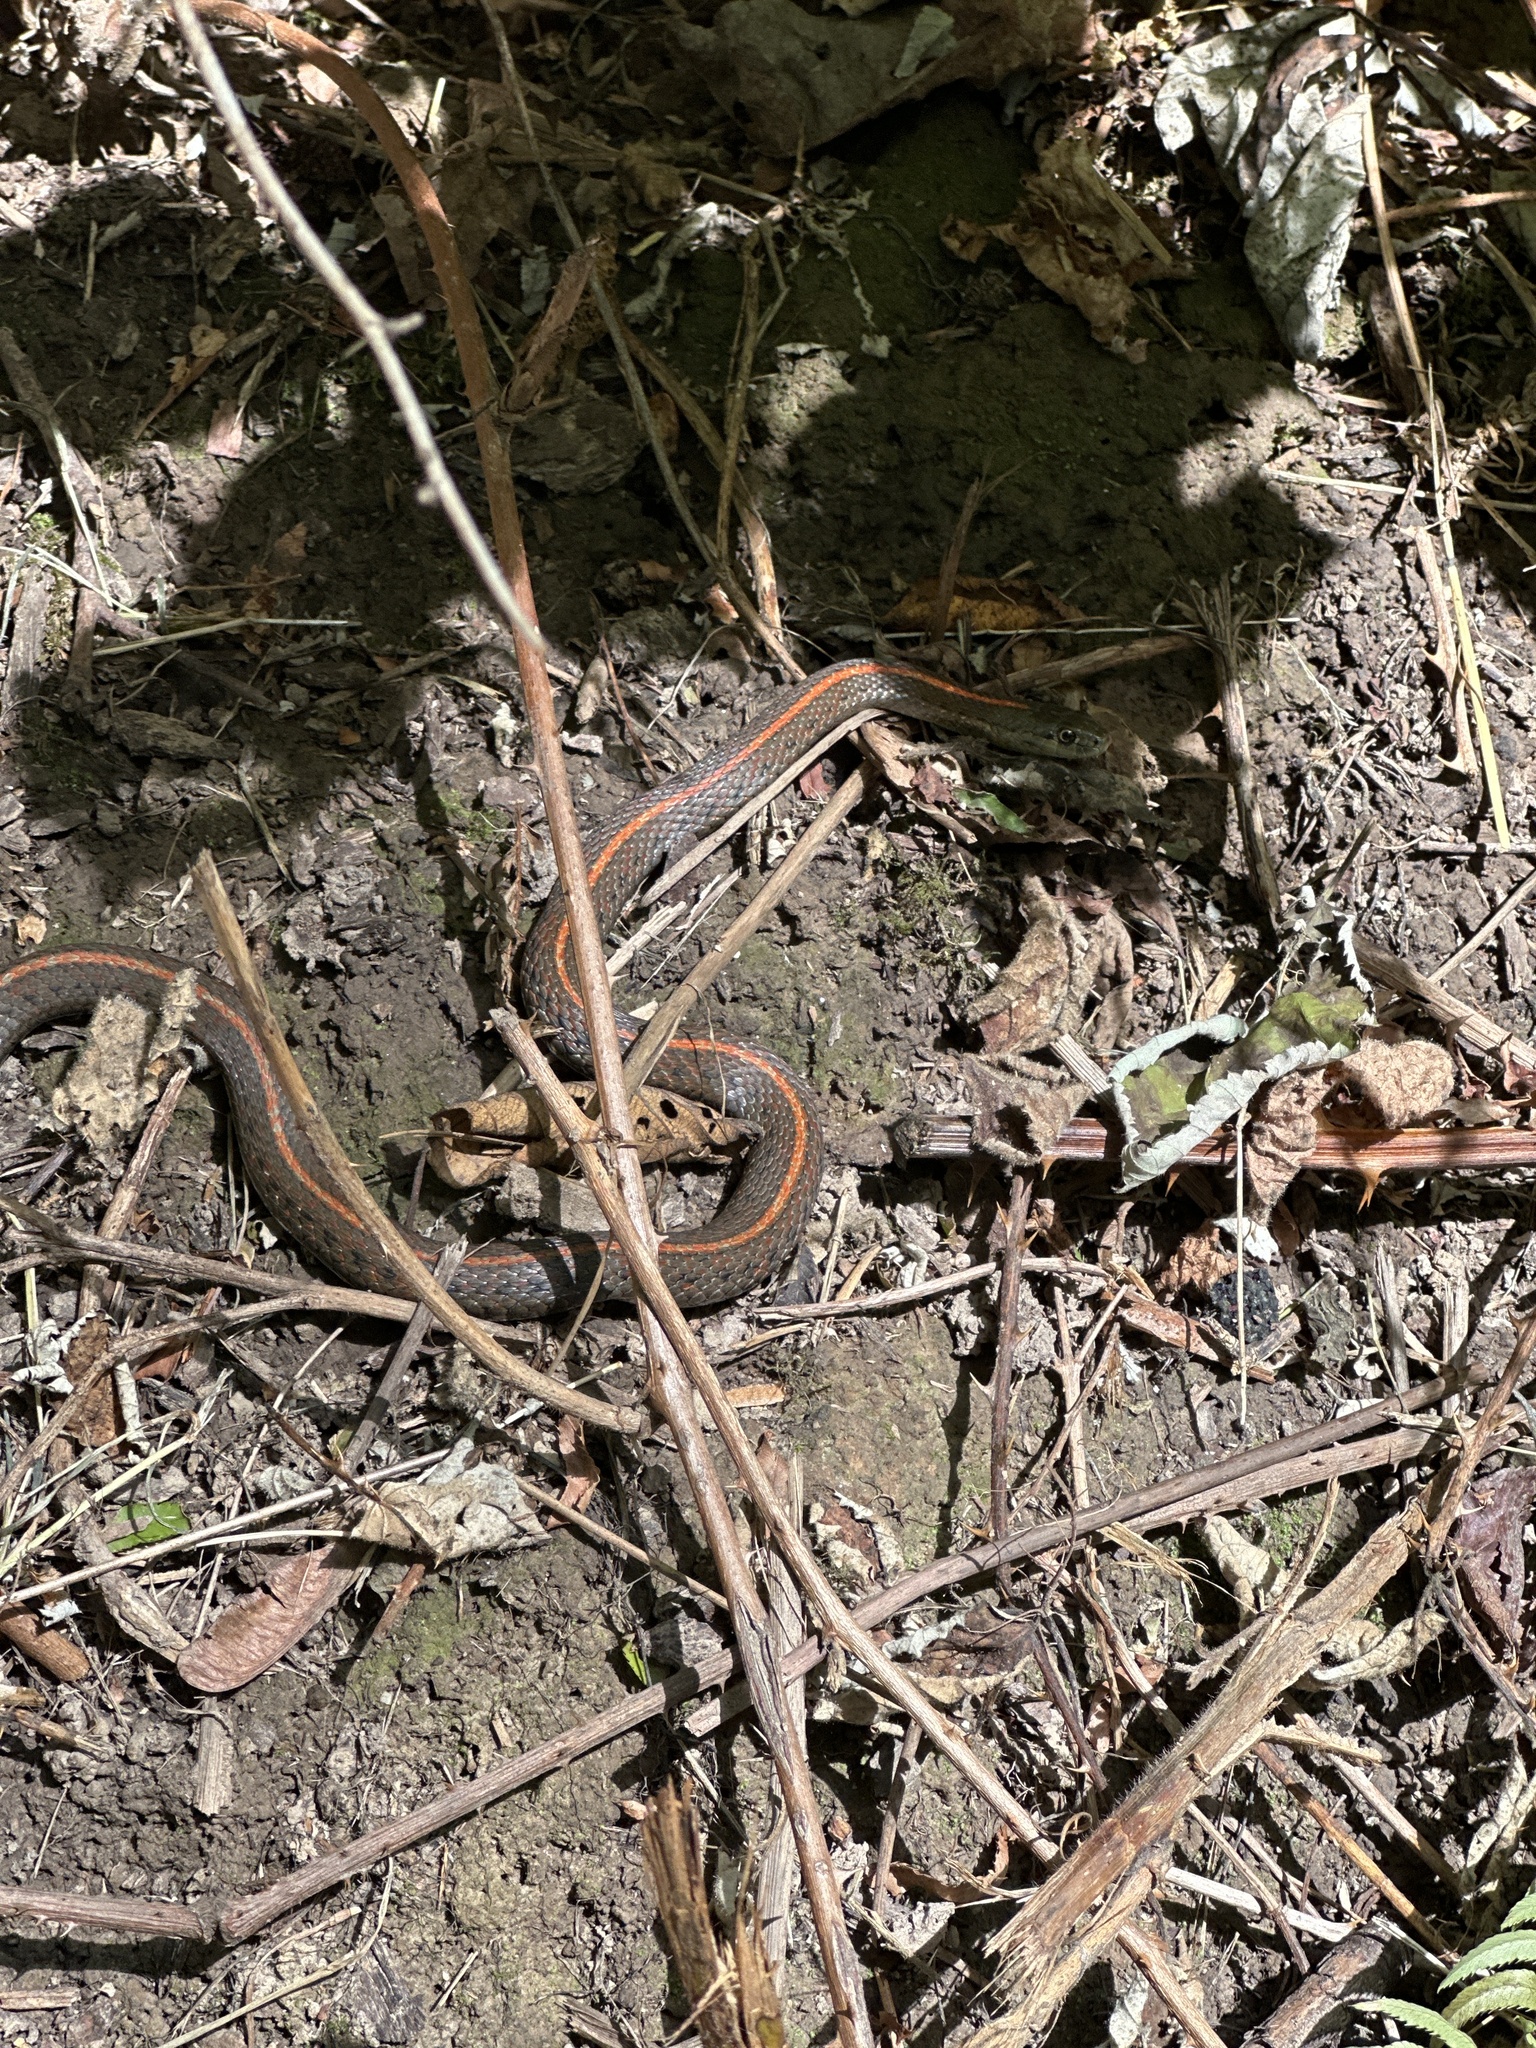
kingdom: Animalia
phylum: Chordata
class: Squamata
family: Colubridae
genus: Thamnophis
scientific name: Thamnophis ordinoides
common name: Northwestern garter snake
